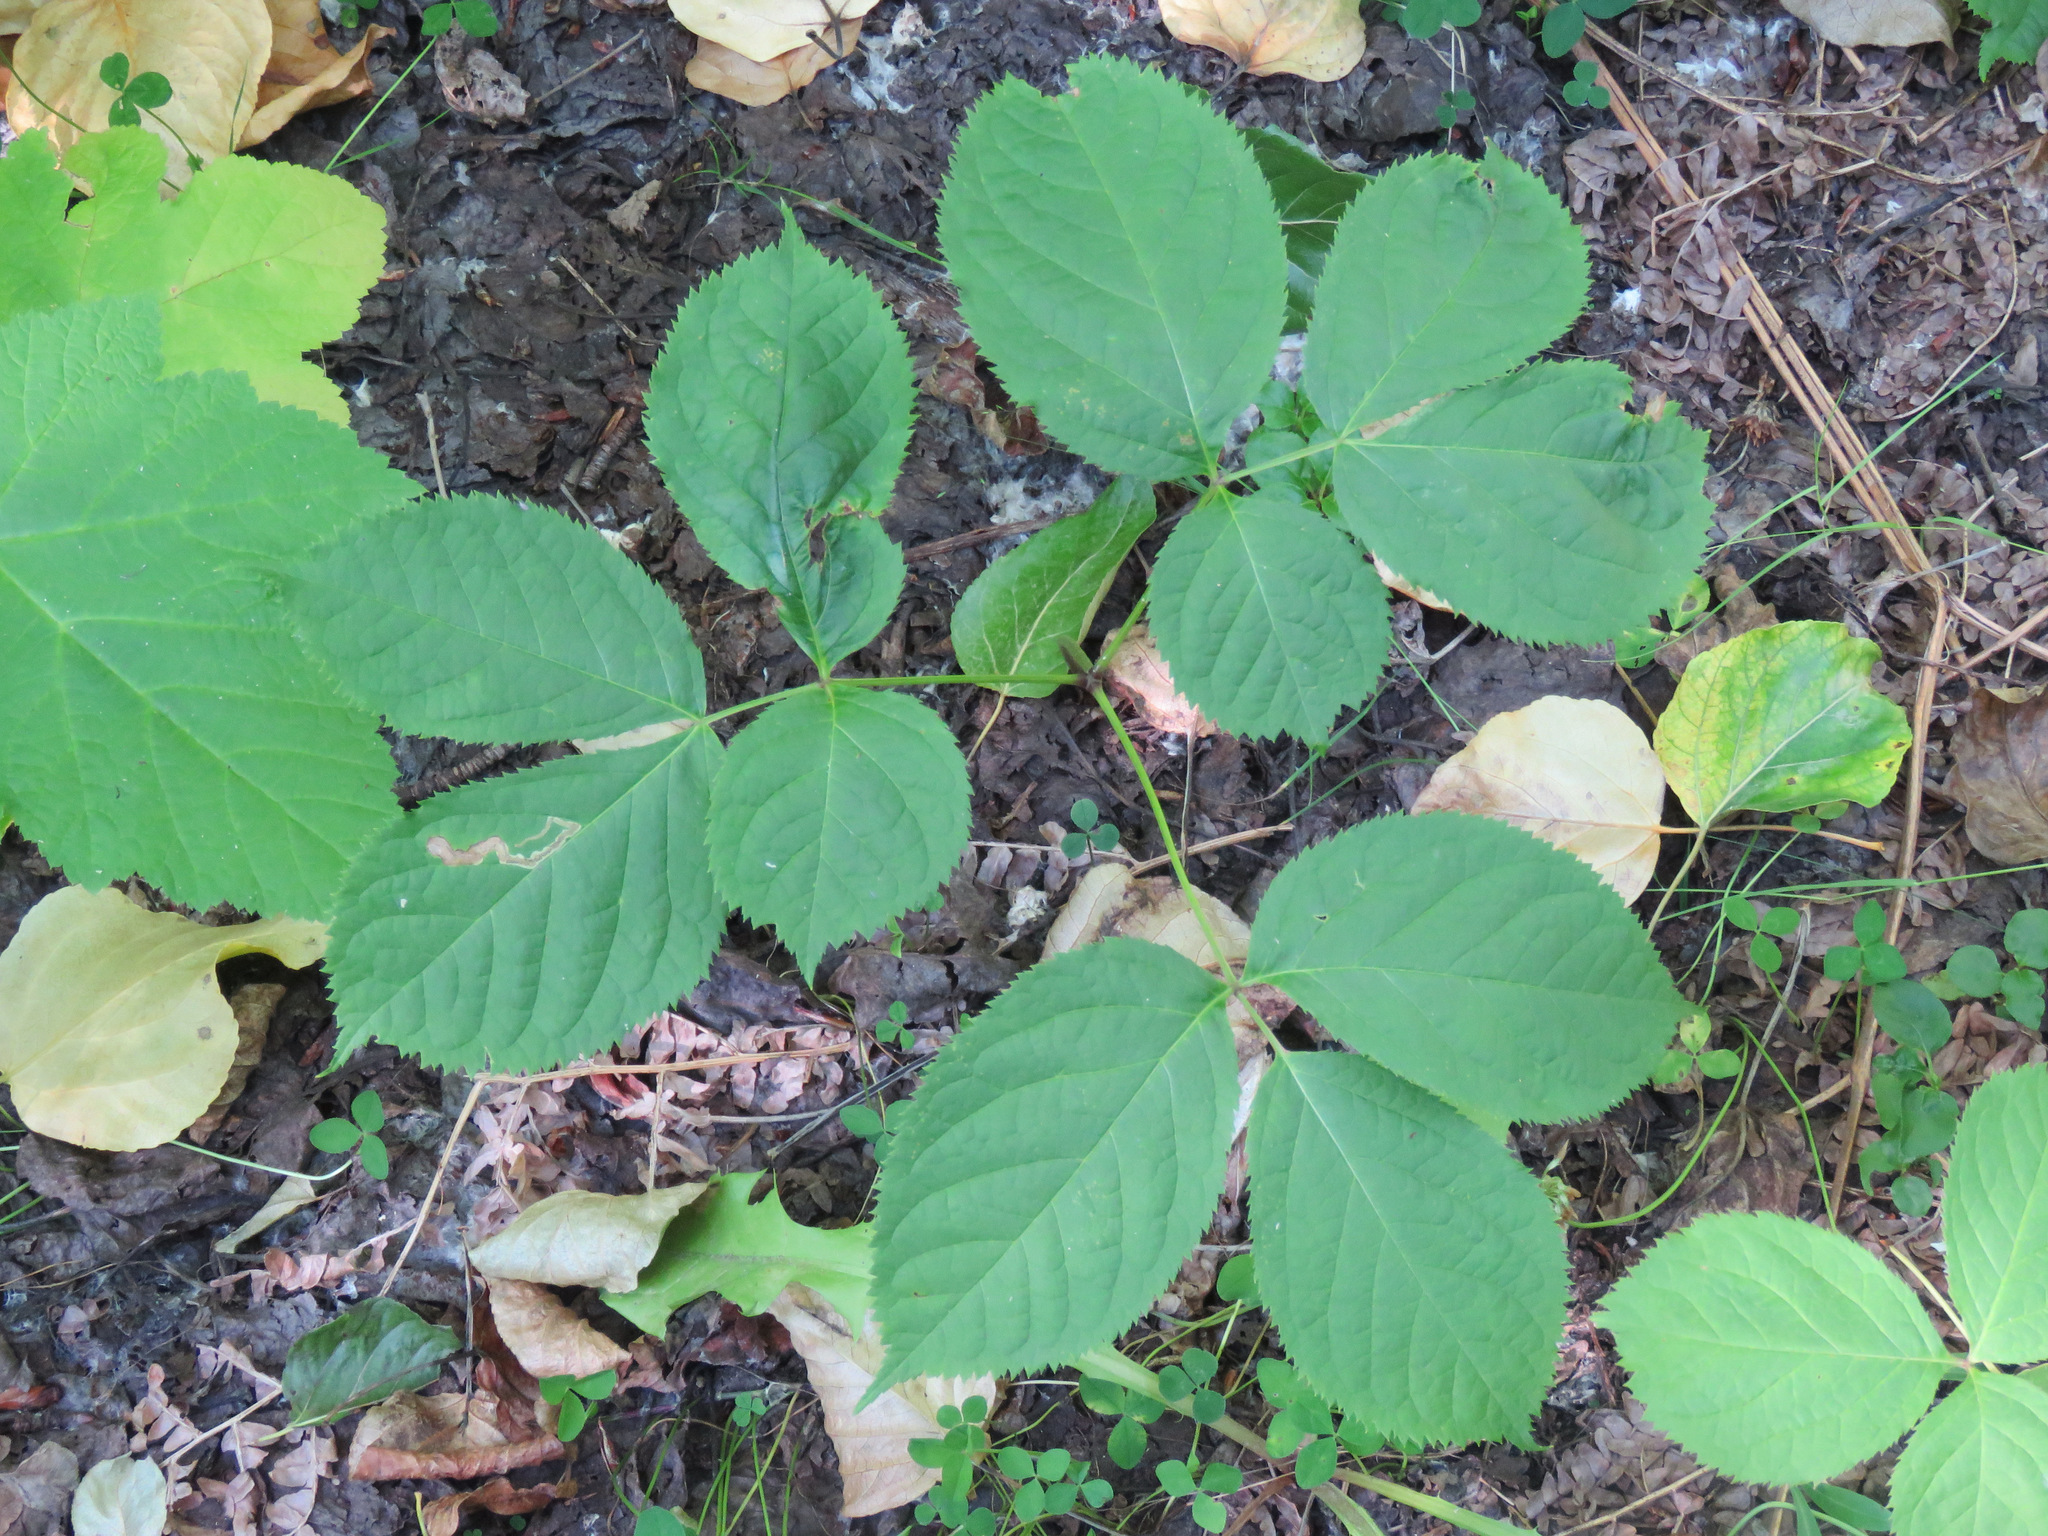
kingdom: Plantae
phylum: Tracheophyta
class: Magnoliopsida
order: Apiales
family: Araliaceae
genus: Aralia
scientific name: Aralia nudicaulis
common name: Wild sarsaparilla
